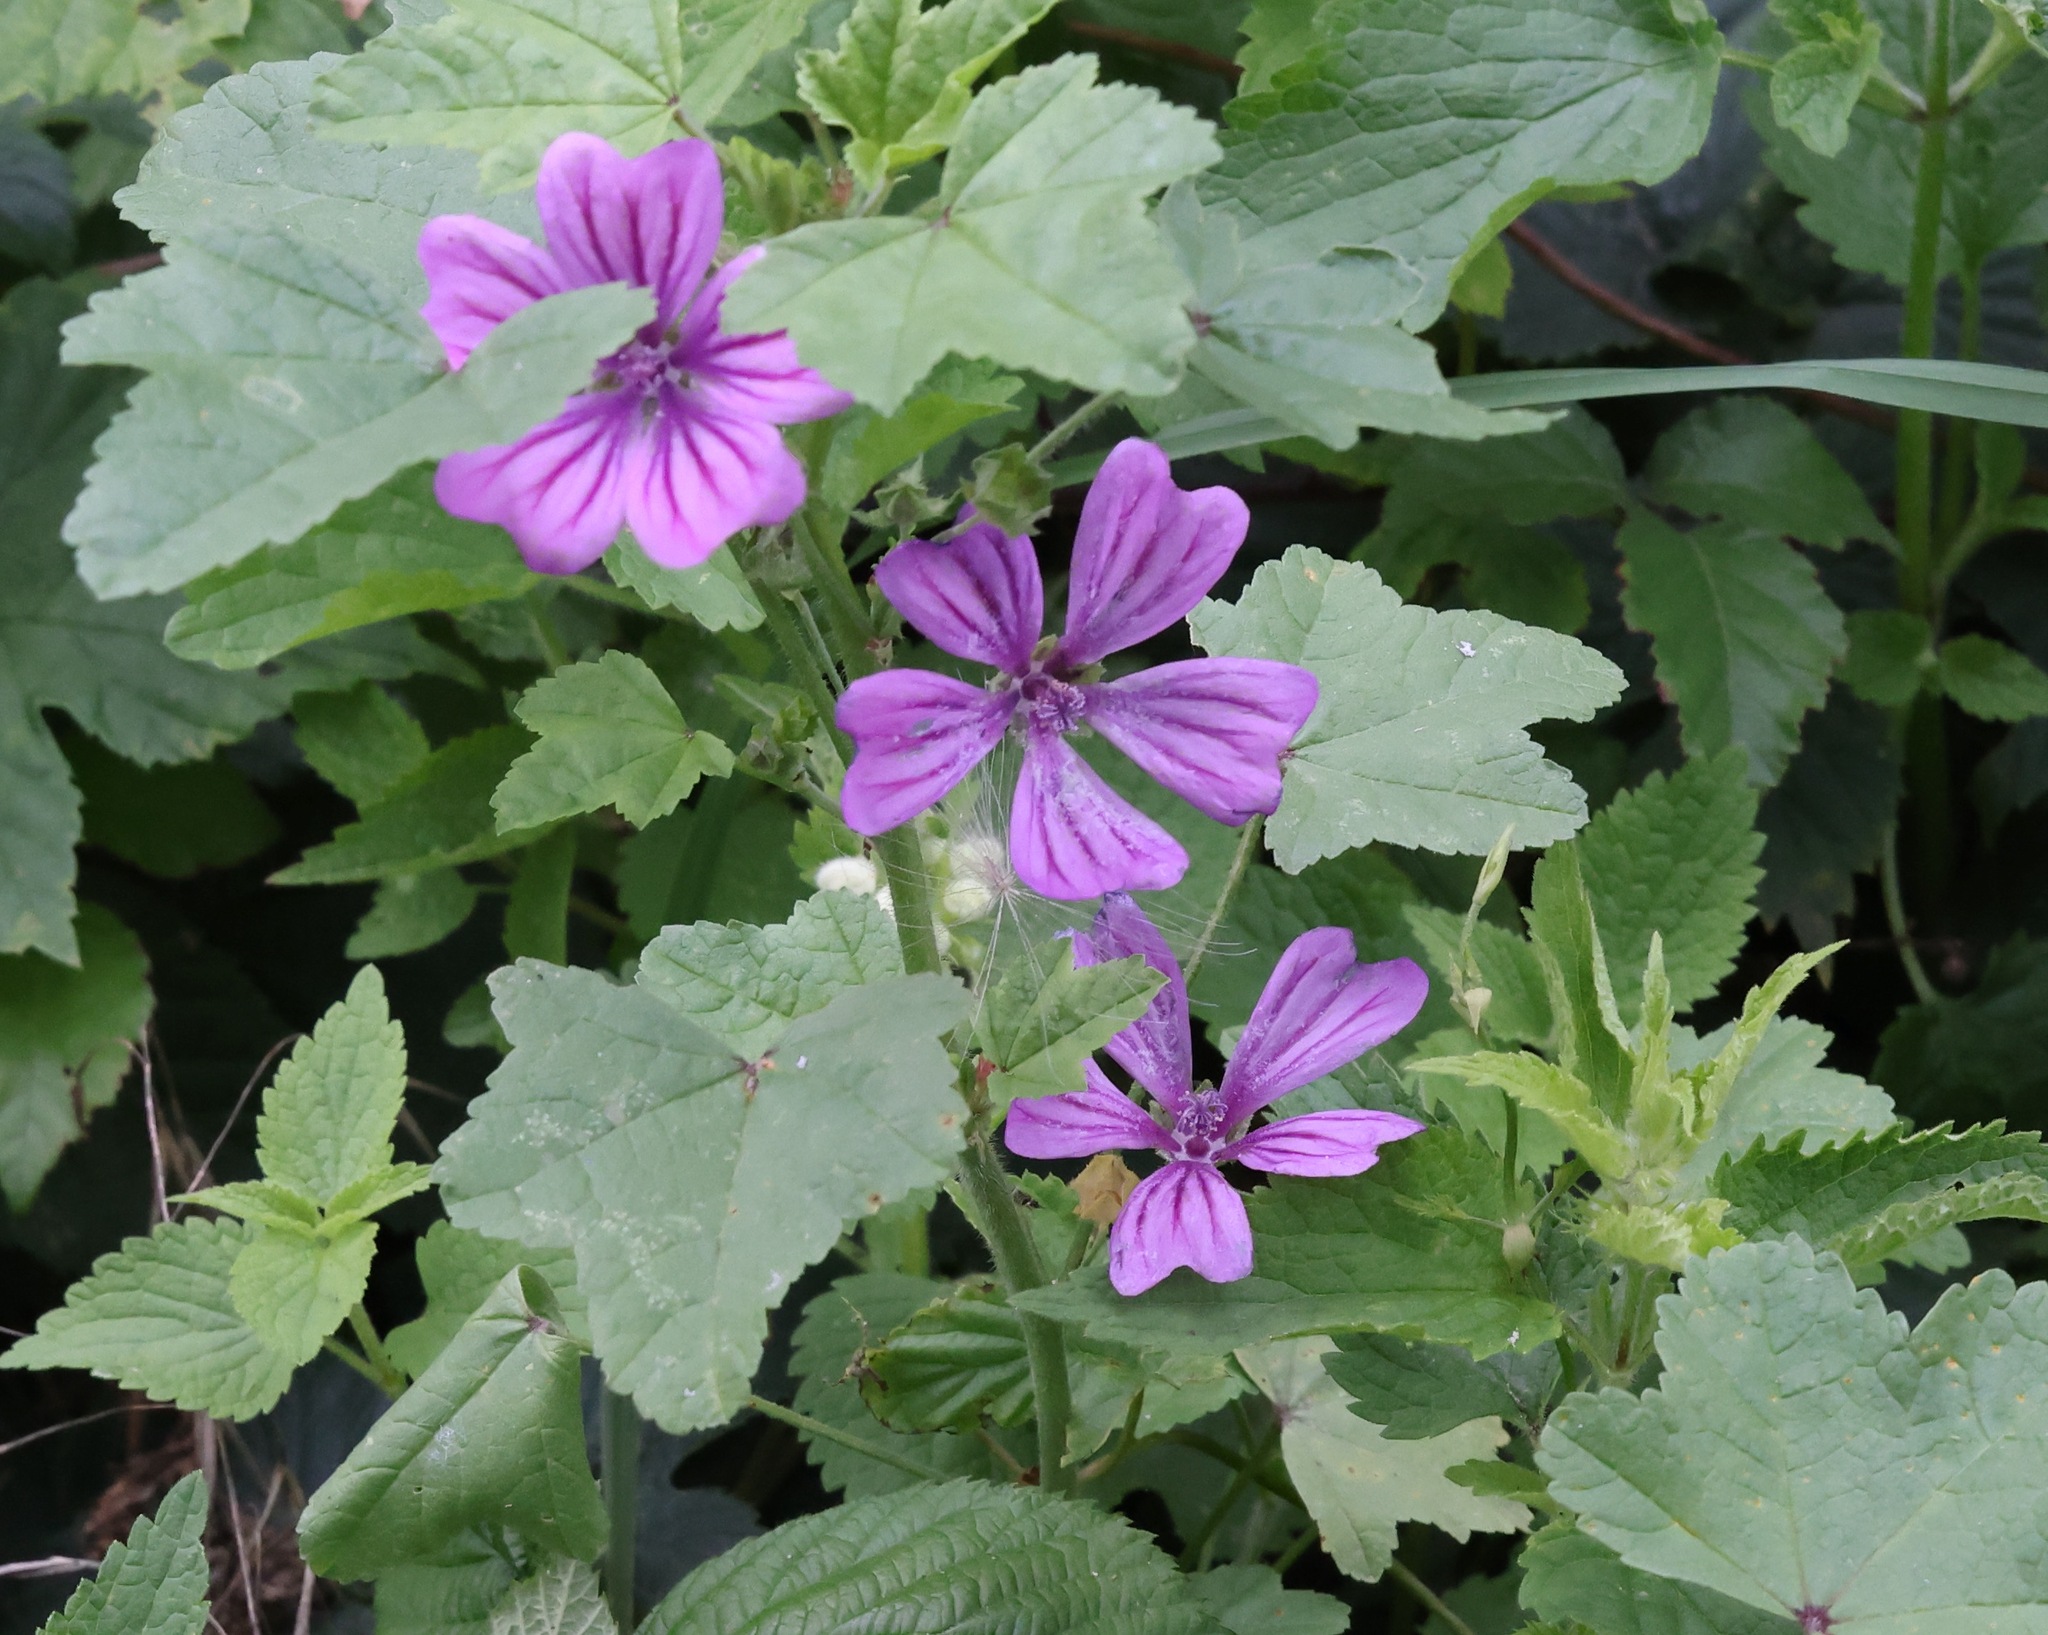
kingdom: Plantae
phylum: Tracheophyta
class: Magnoliopsida
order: Malvales
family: Malvaceae
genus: Malva
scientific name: Malva sylvestris
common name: Common mallow
